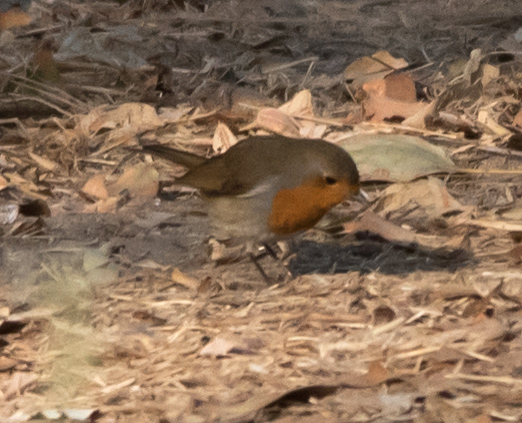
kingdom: Animalia
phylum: Chordata
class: Aves
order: Passeriformes
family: Muscicapidae
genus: Erithacus
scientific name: Erithacus rubecula
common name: European robin
